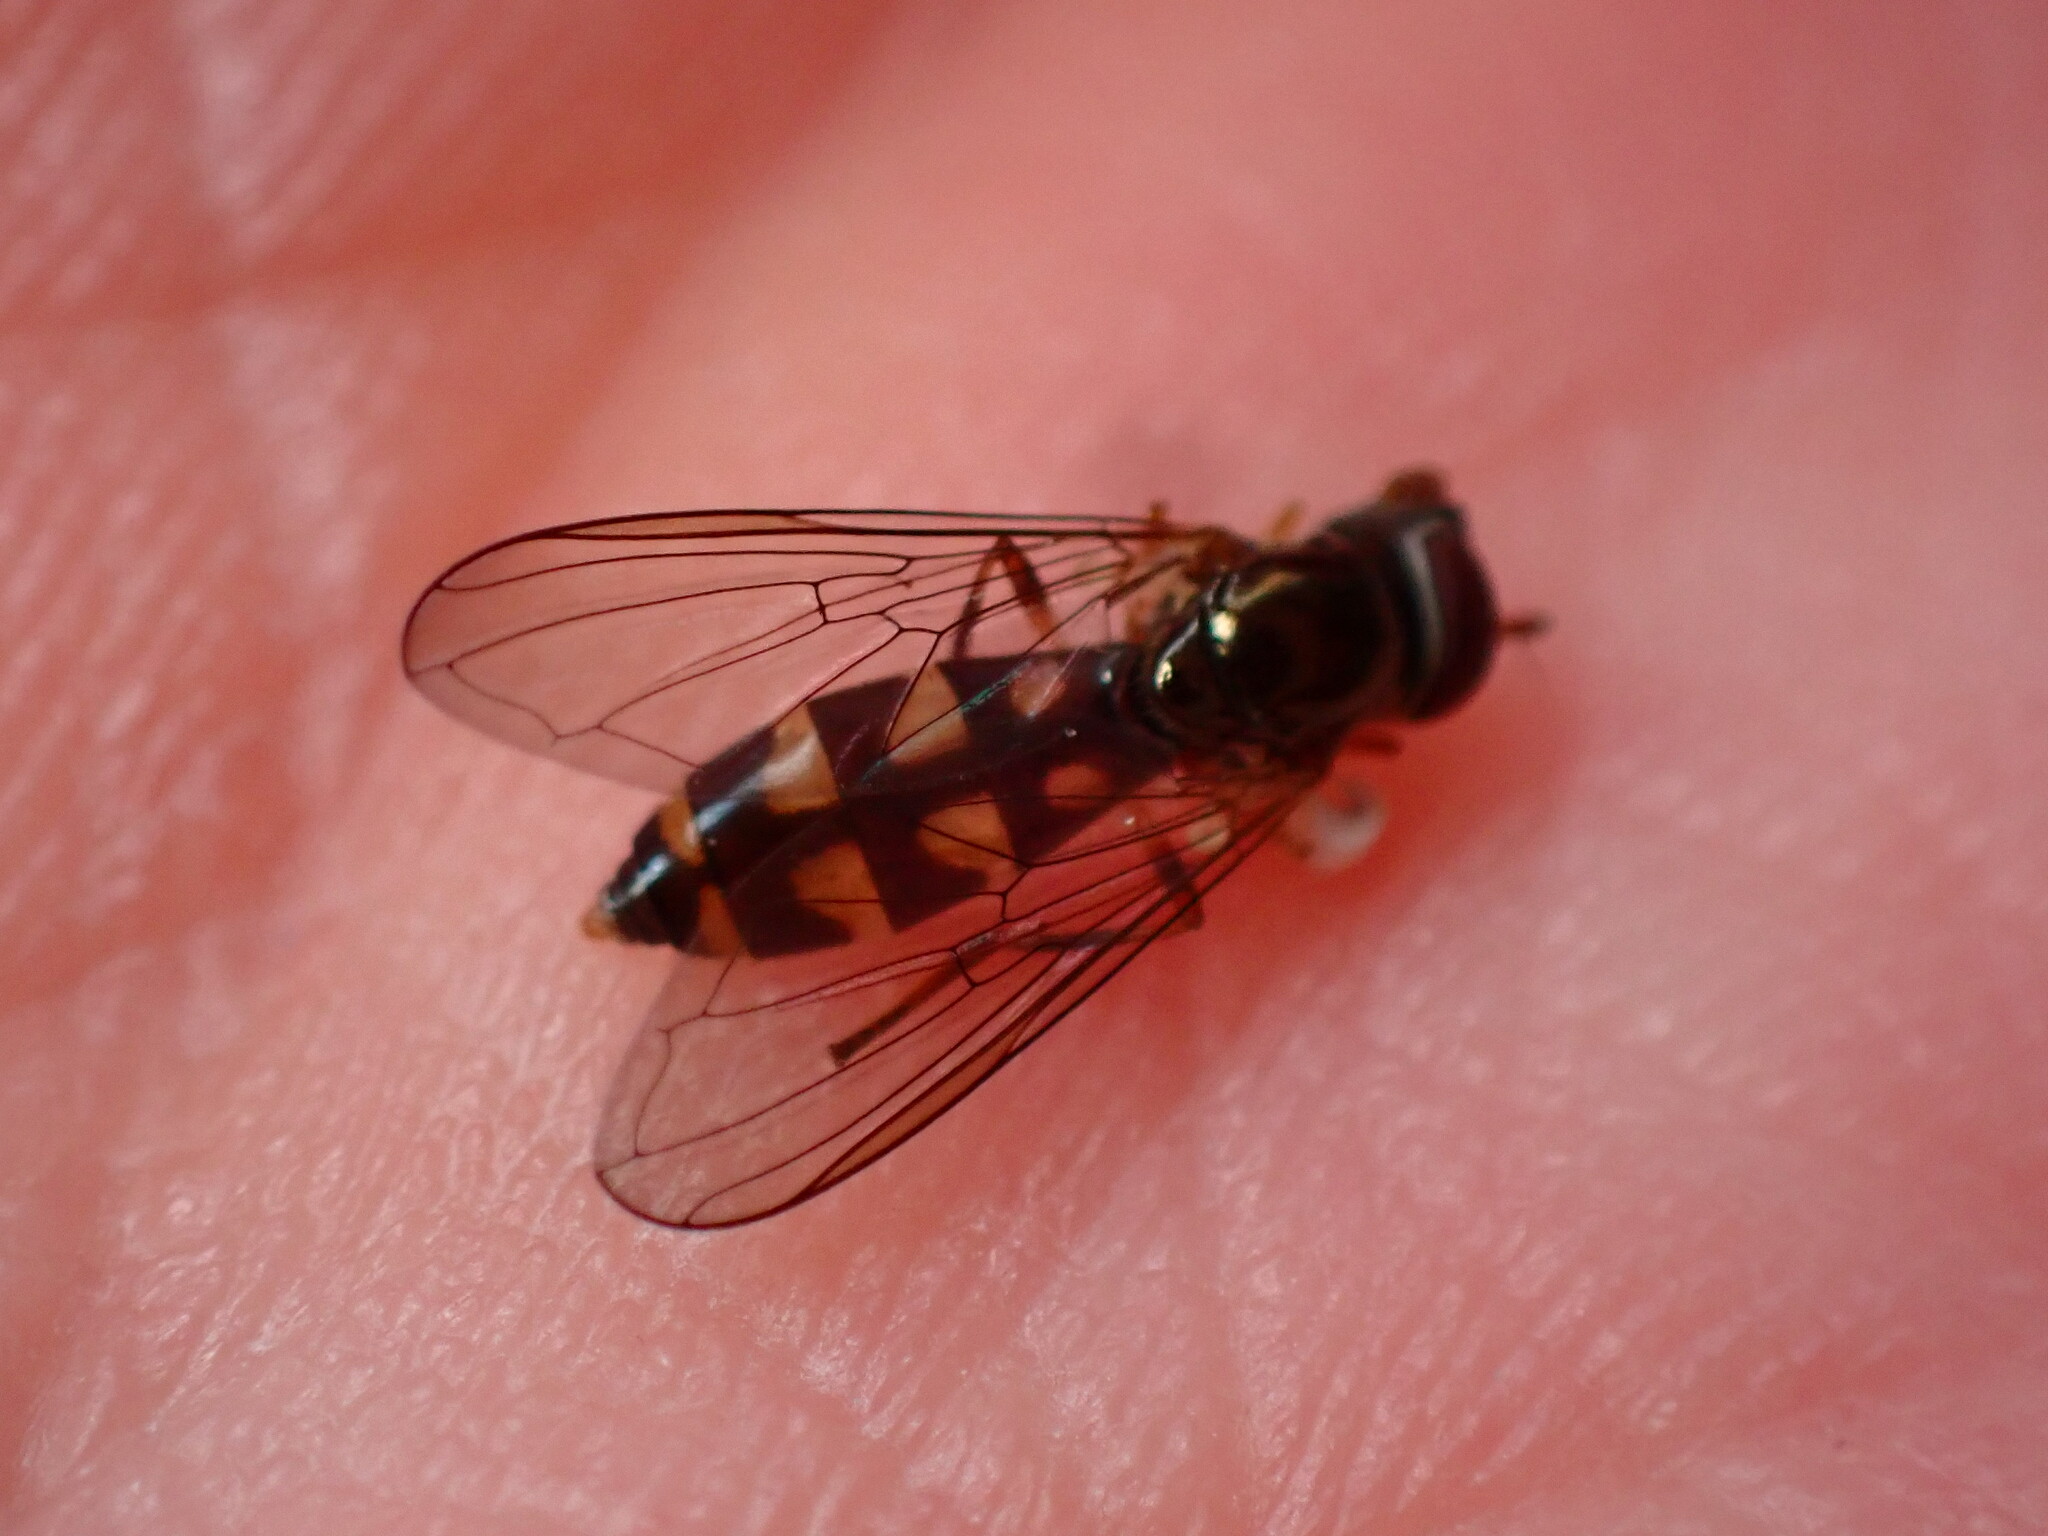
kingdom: Animalia
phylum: Arthropoda
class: Insecta
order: Diptera
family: Syrphidae
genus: Melanostoma
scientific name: Melanostoma mellina
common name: Hover fly
